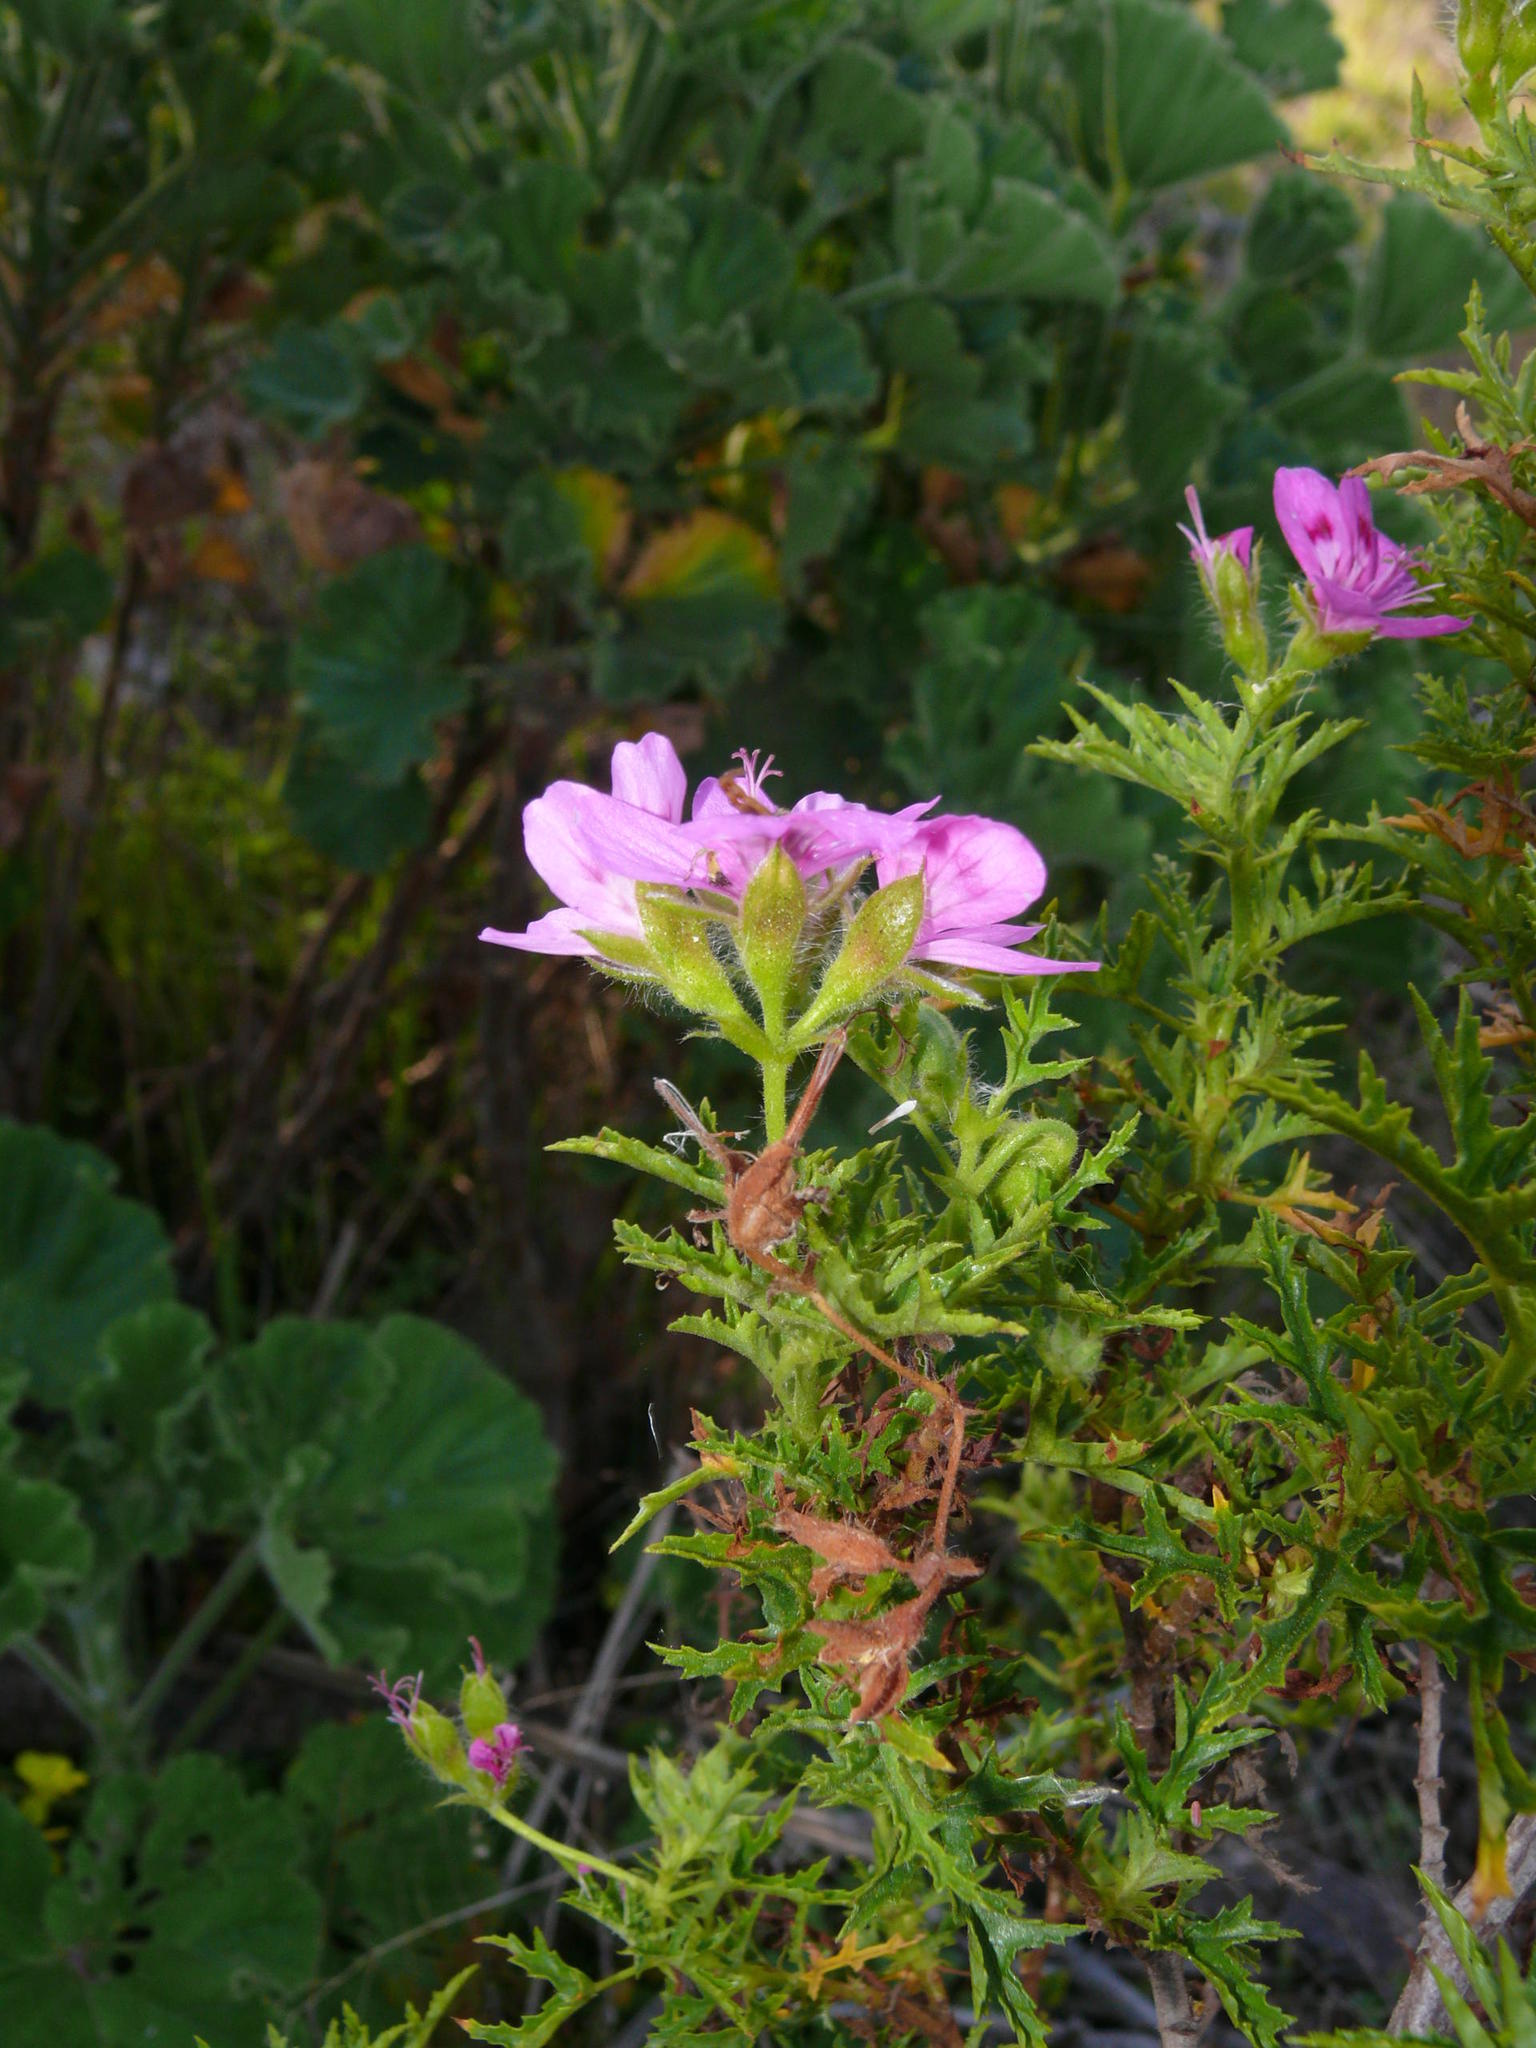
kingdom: Plantae
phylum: Tracheophyta
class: Magnoliopsida
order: Geraniales
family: Geraniaceae
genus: Pelargonium
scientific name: Pelargonium glutinosum
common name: Pheasant-foot geranium
